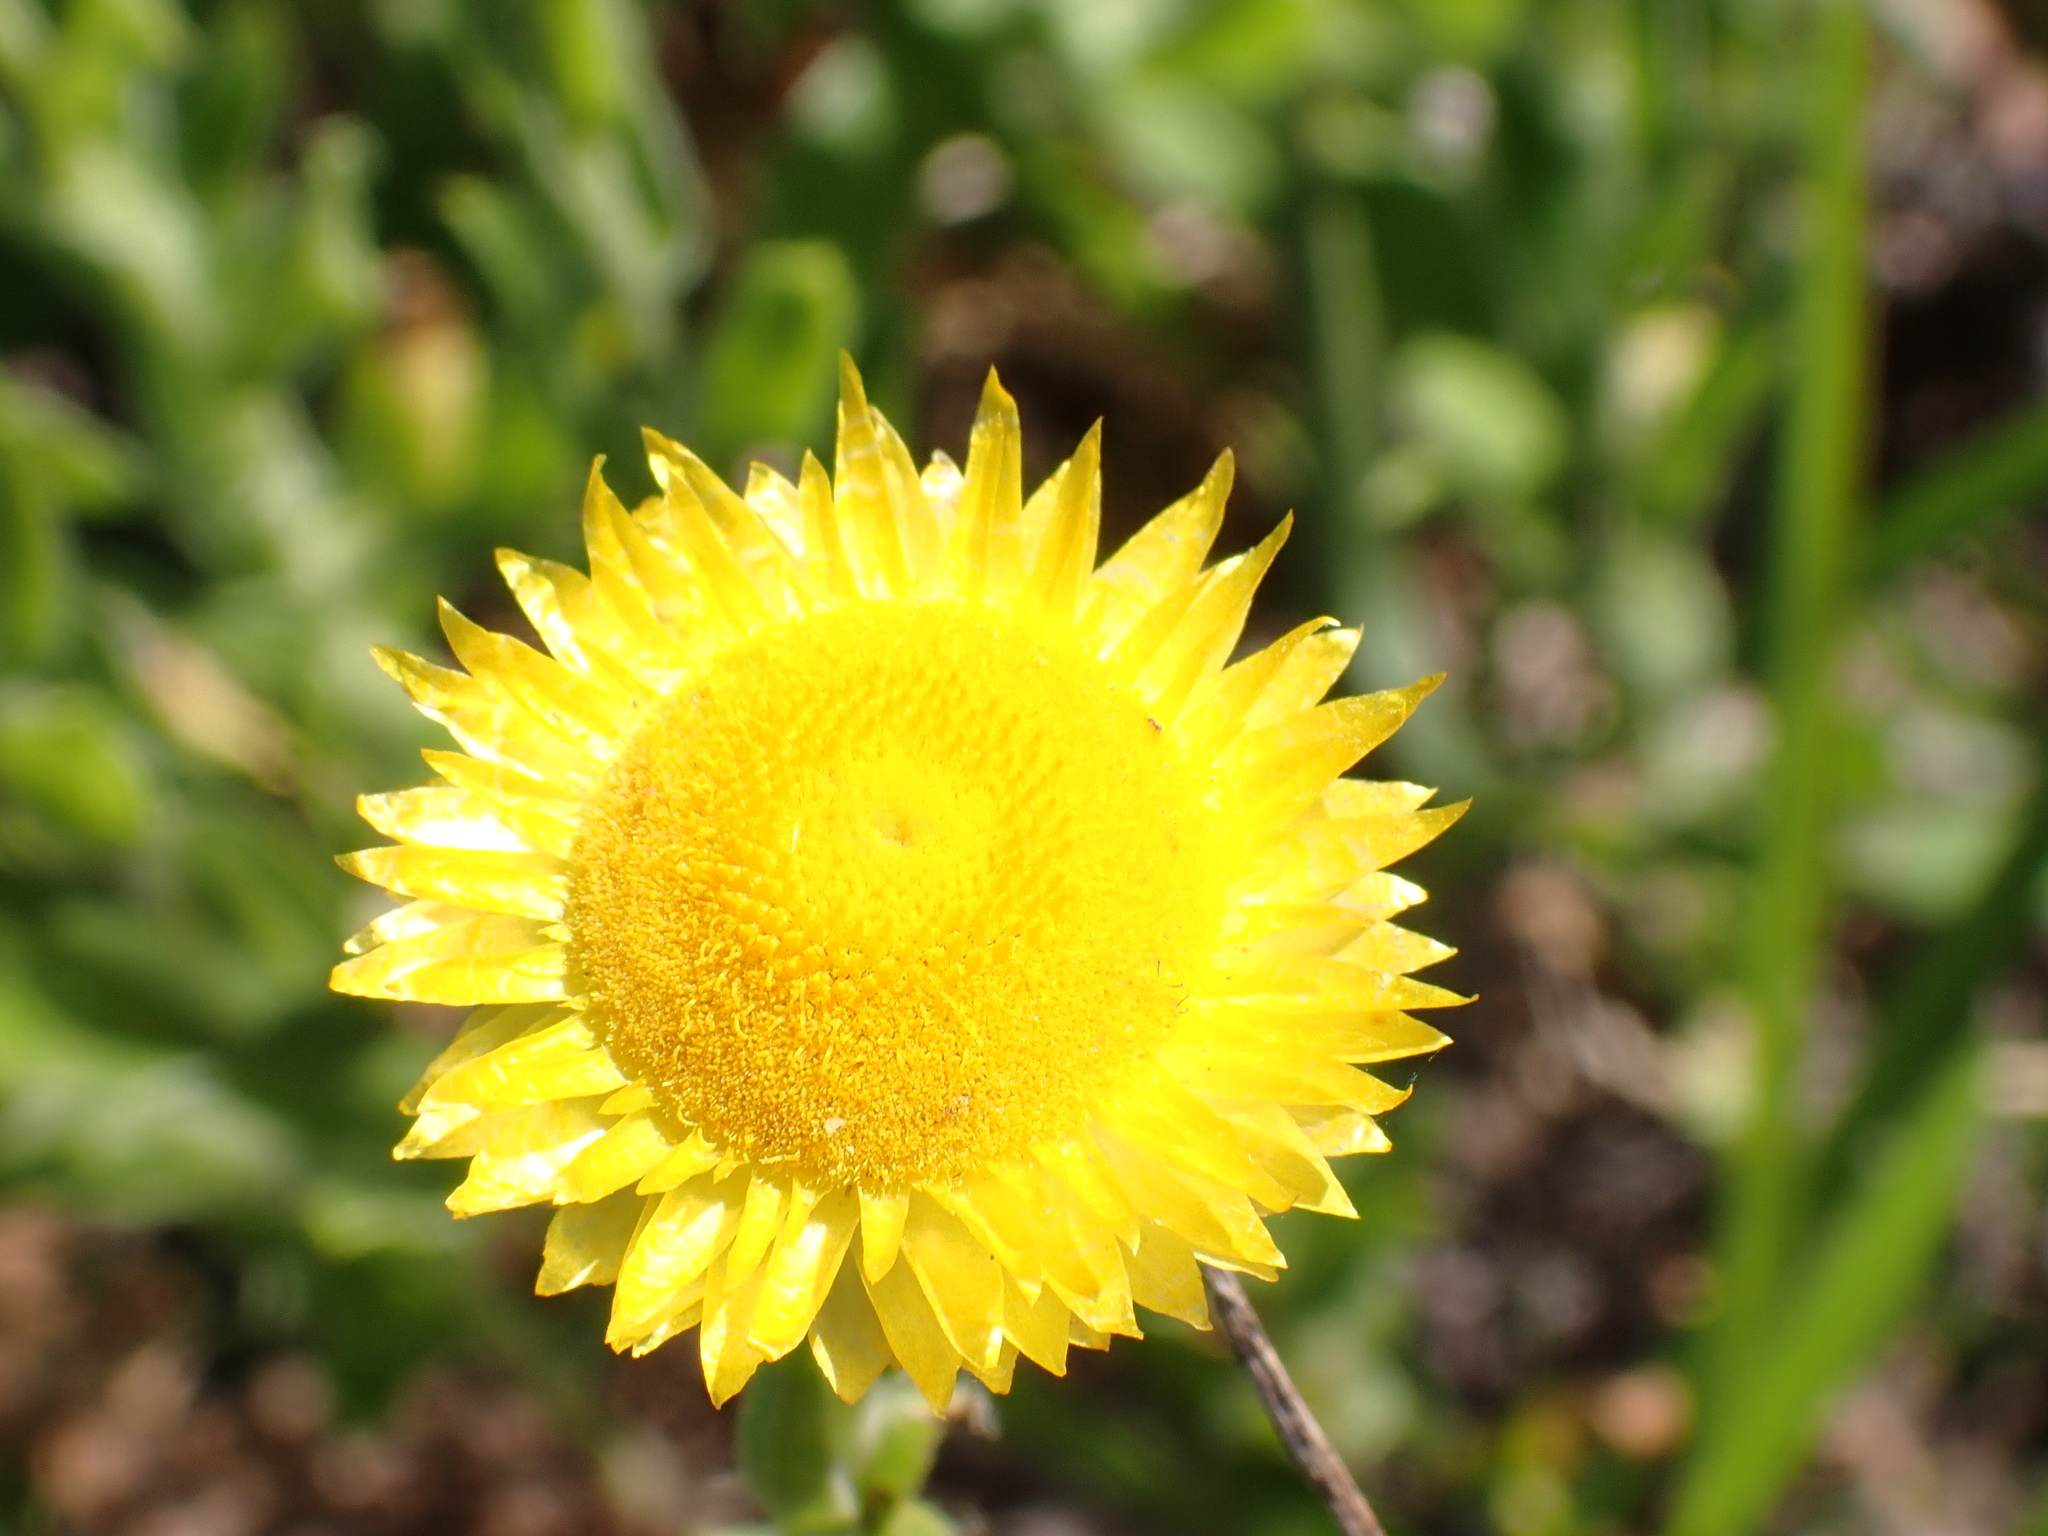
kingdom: Plantae
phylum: Tracheophyta
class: Magnoliopsida
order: Asterales
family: Asteraceae
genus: Helichrysum
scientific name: Helichrysum aureum
